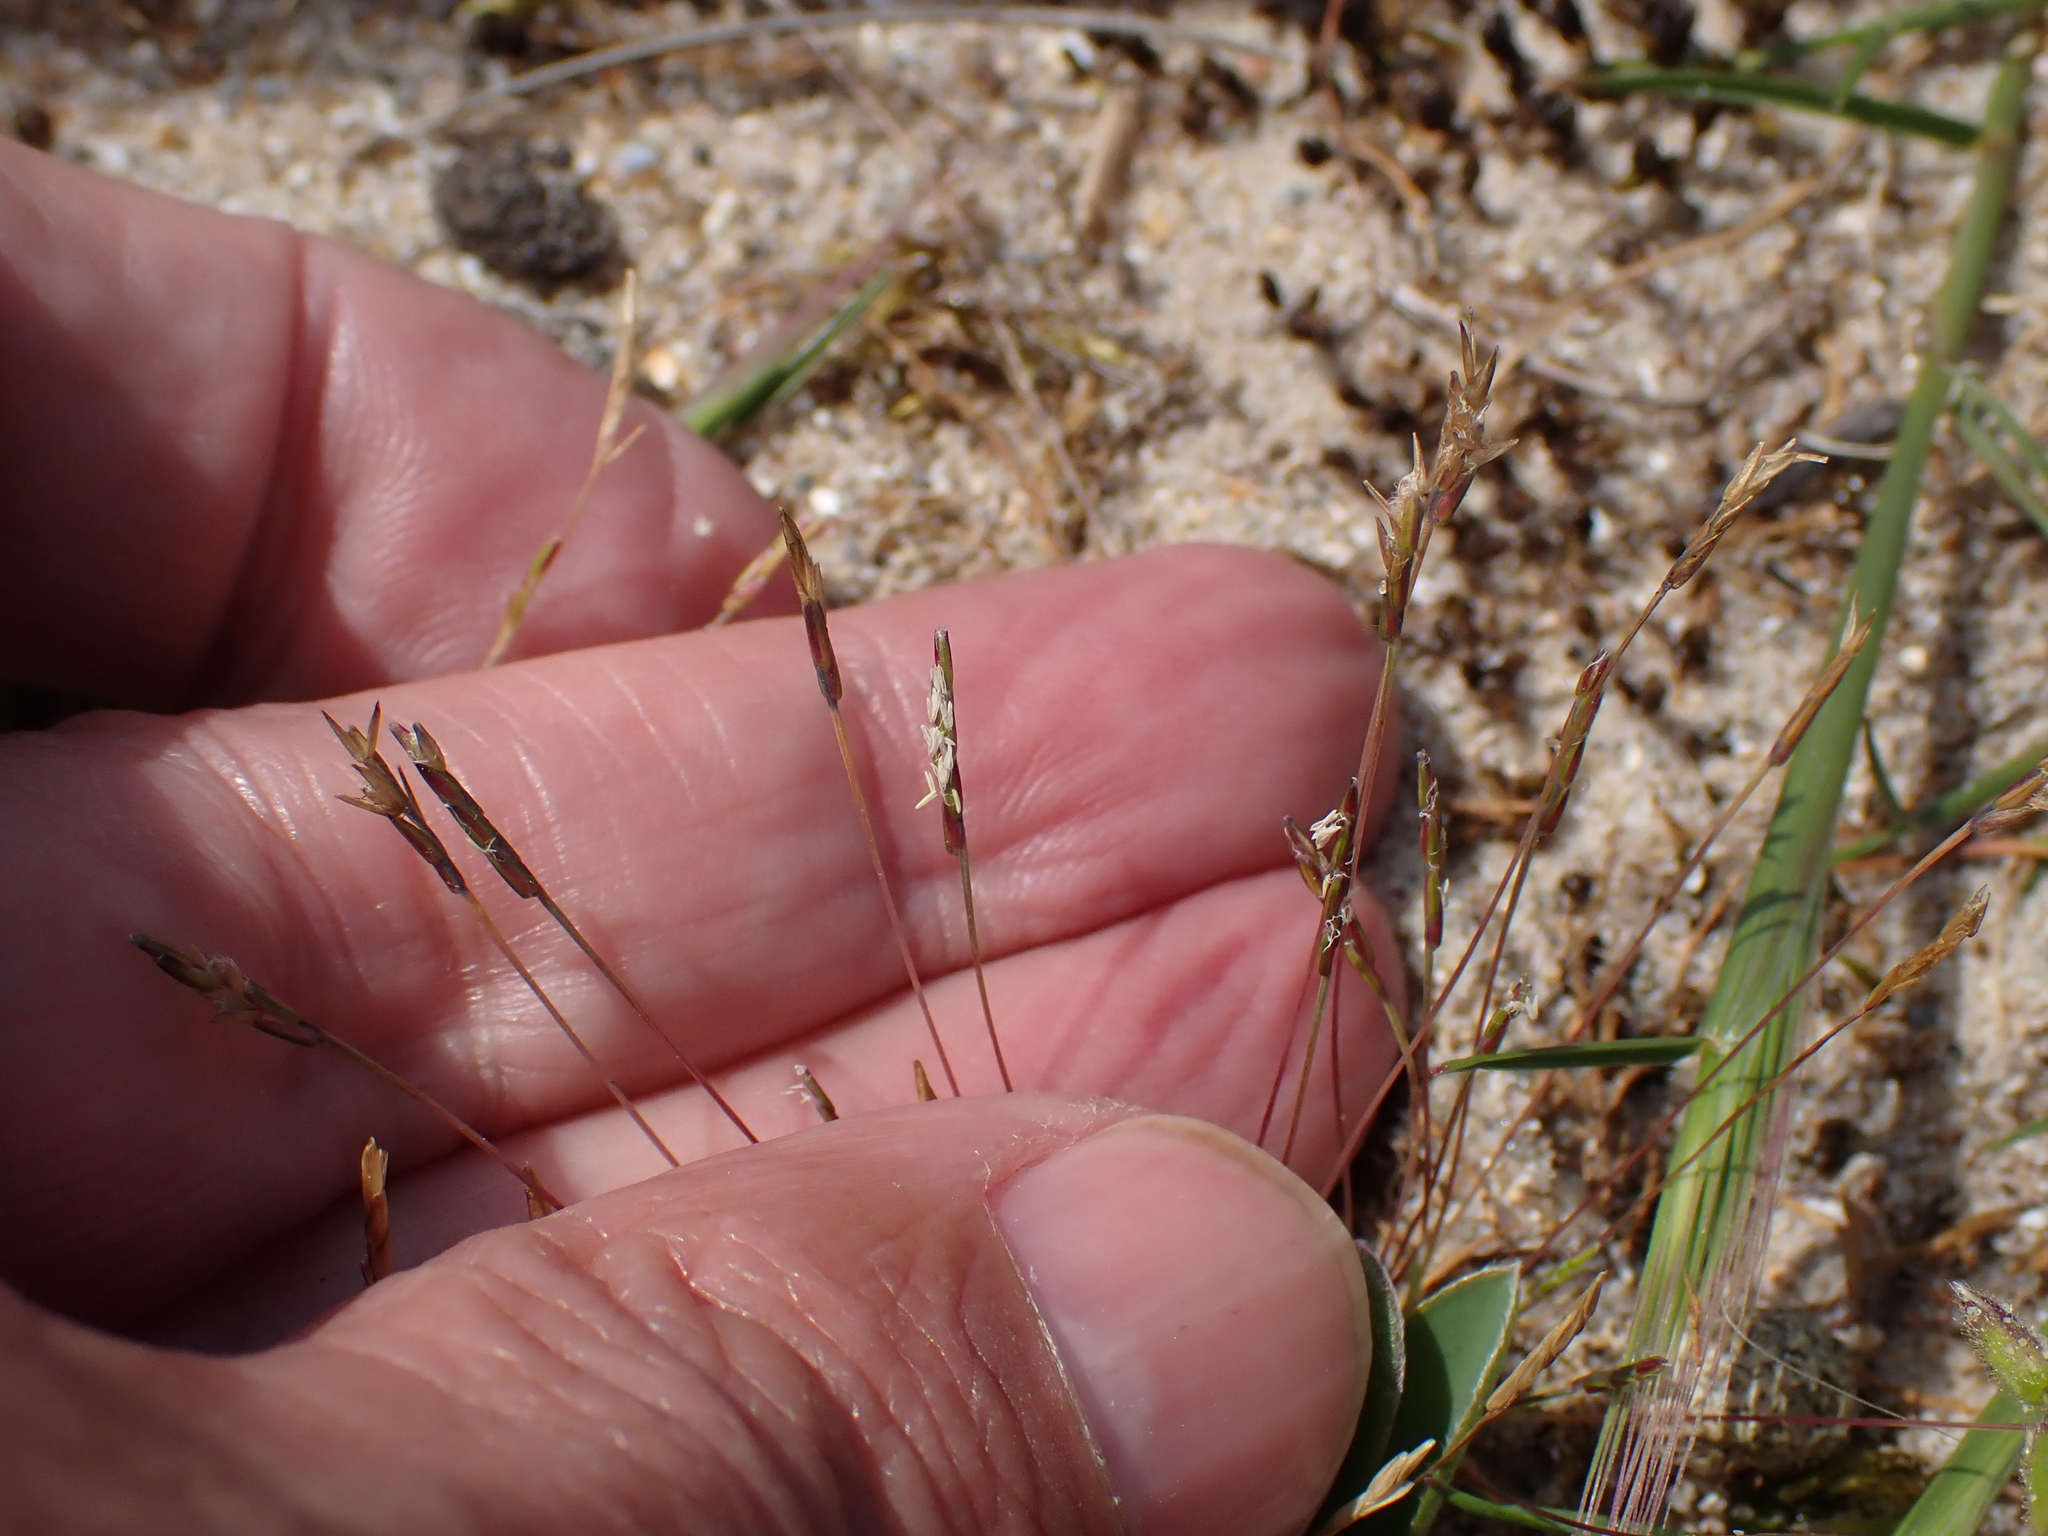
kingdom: Plantae
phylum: Tracheophyta
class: Liliopsida
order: Poales
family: Poaceae
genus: Mibora
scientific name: Mibora minima
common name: Early sand-grass
